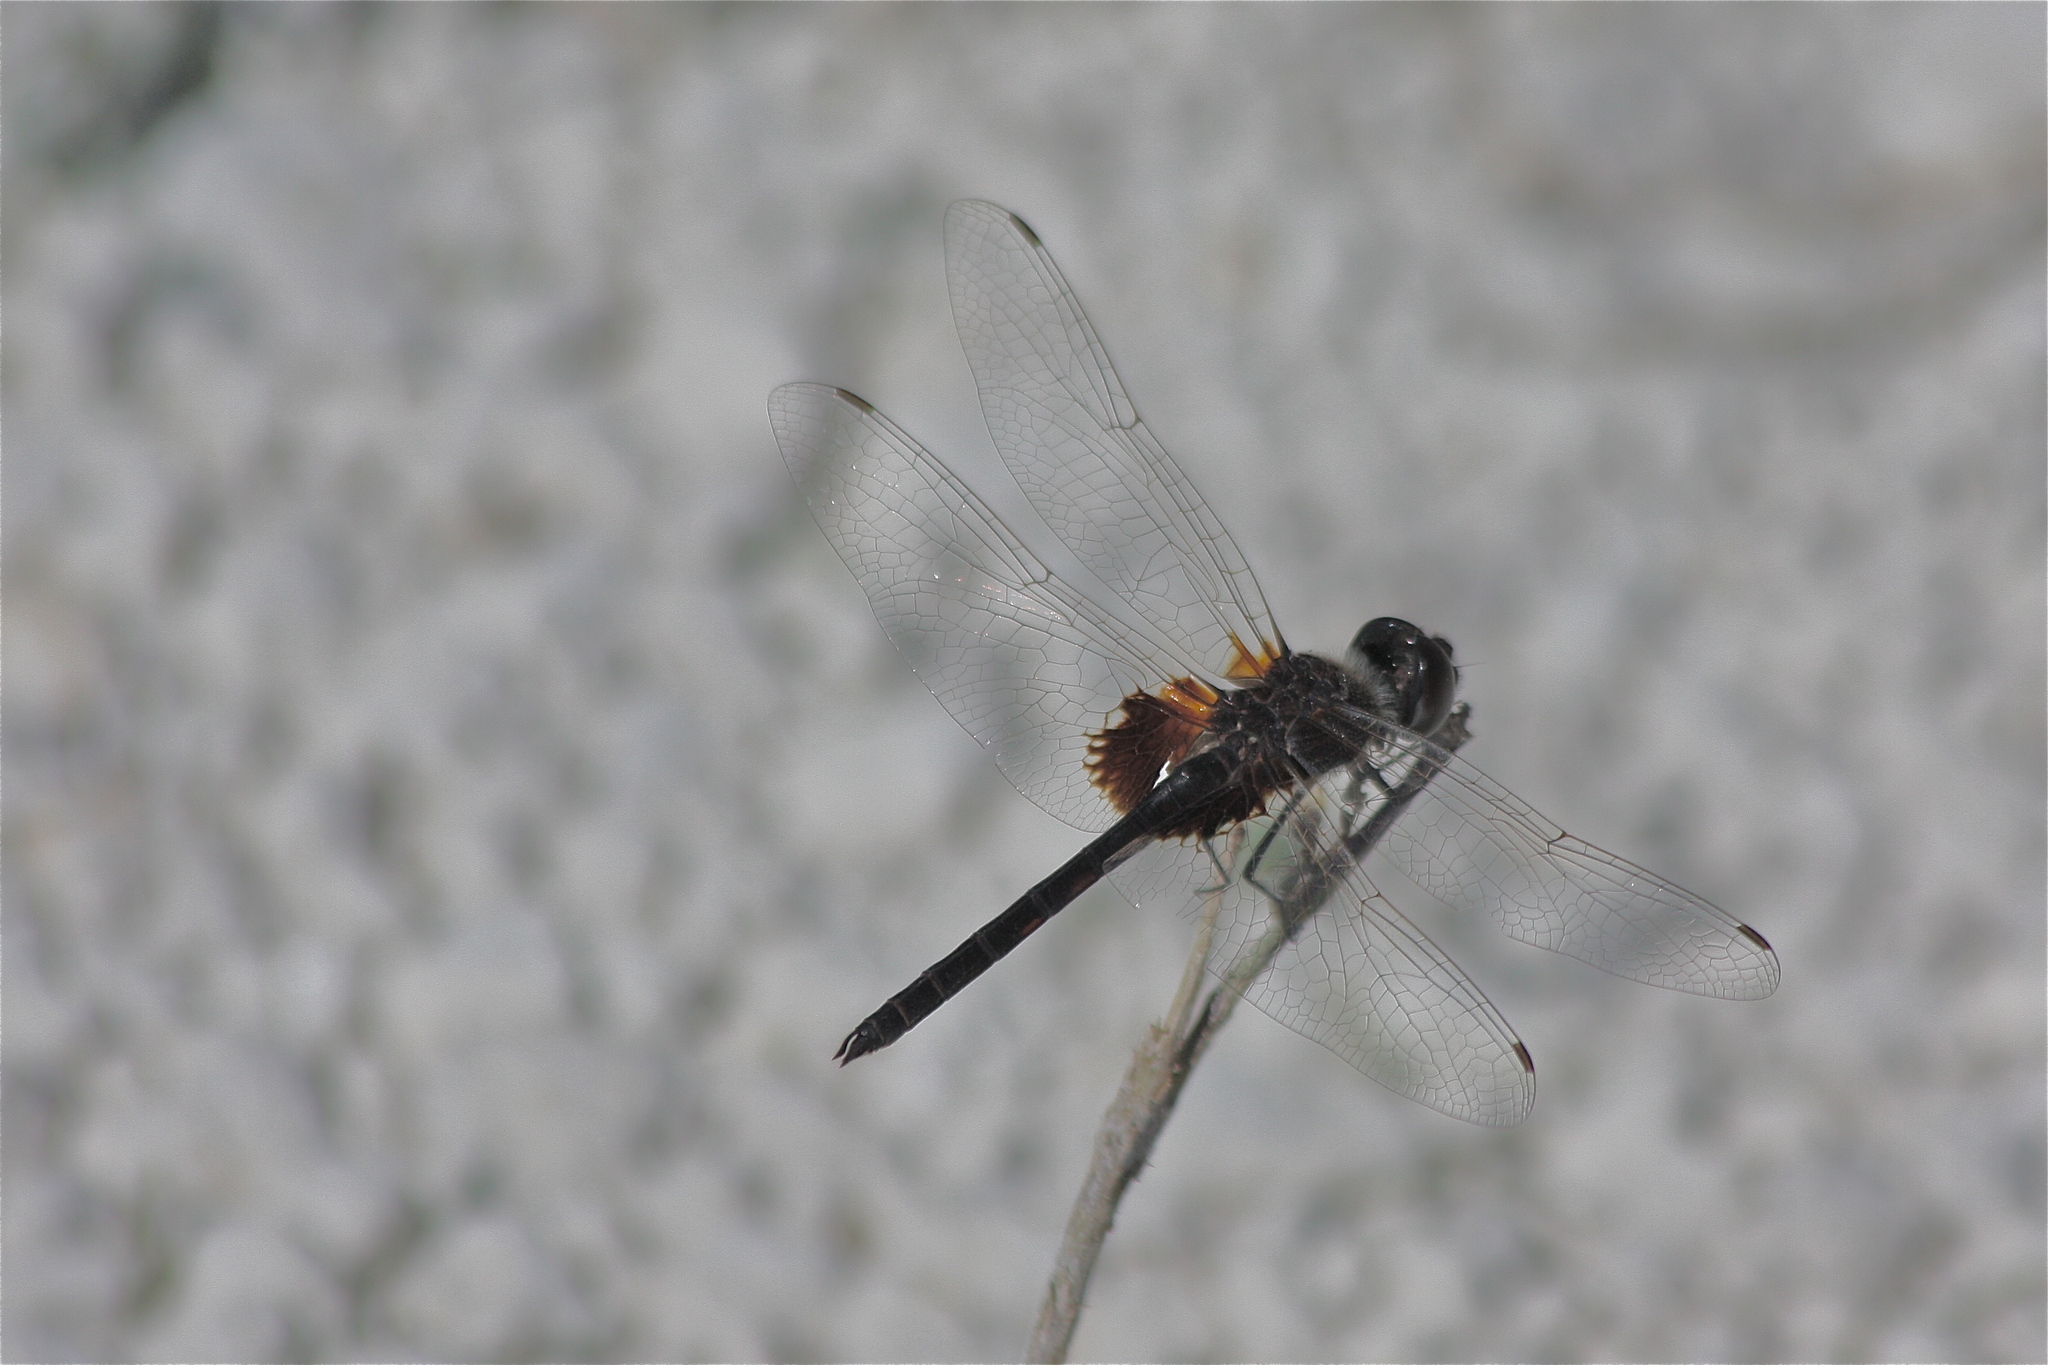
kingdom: Animalia
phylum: Arthropoda
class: Insecta
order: Odonata
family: Libellulidae
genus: Macrodiplax
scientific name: Macrodiplax balteata
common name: Marl pennant
